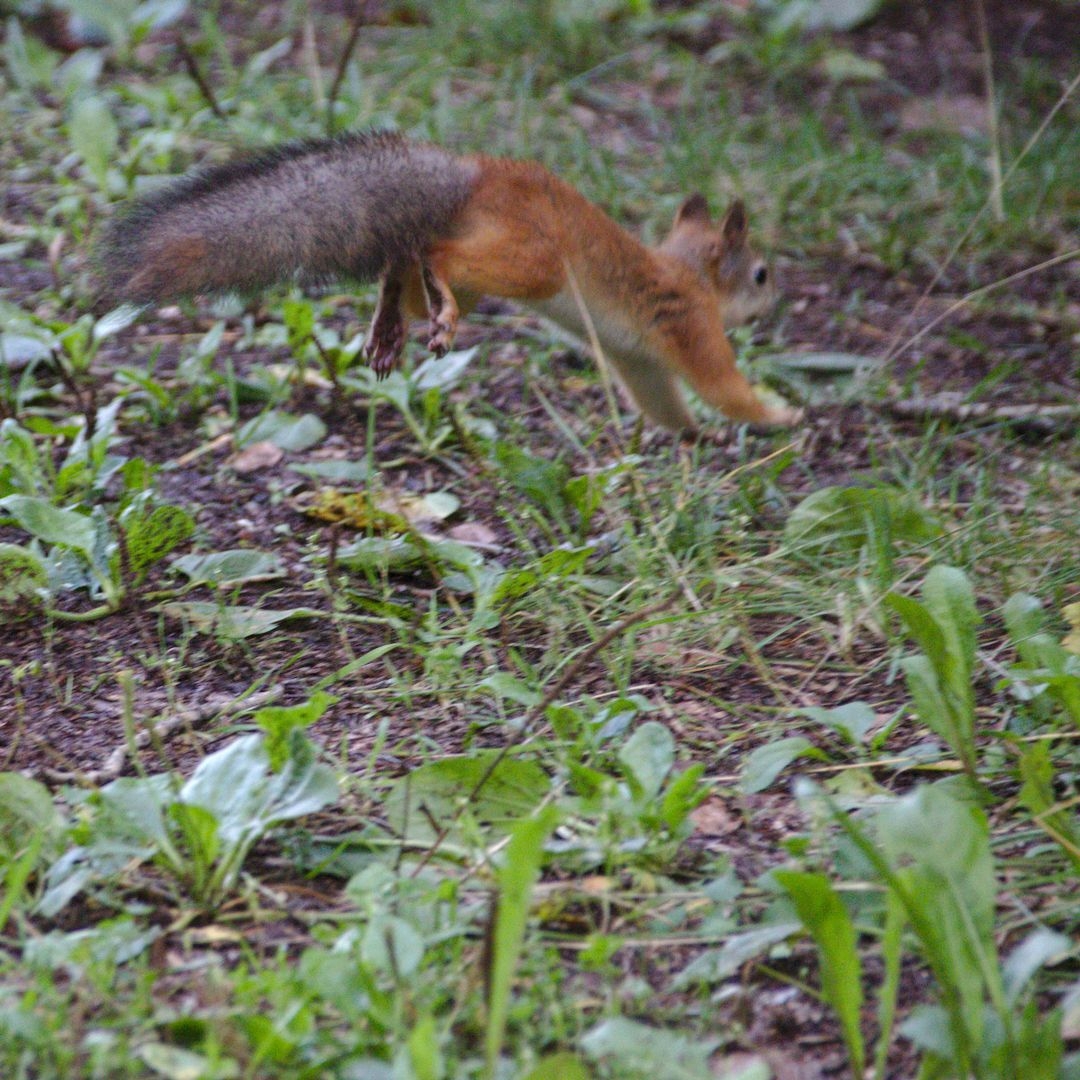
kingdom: Animalia
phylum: Chordata
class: Mammalia
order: Rodentia
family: Sciuridae
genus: Sciurus
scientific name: Sciurus vulgaris
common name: Eurasian red squirrel
